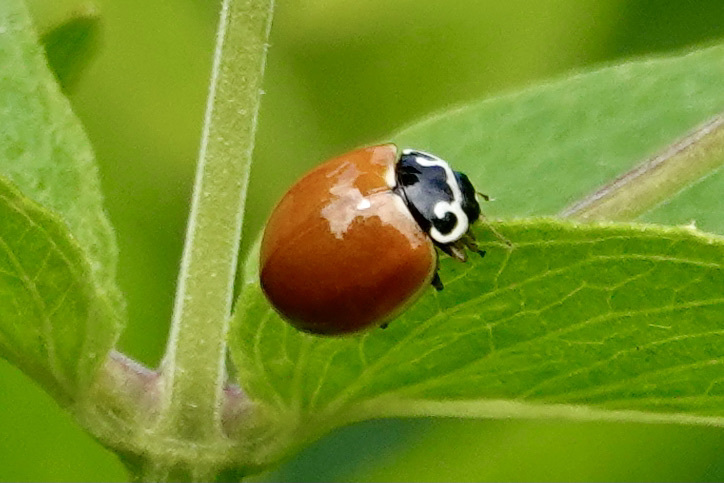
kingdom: Animalia
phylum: Arthropoda
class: Insecta
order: Coleoptera
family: Coccinellidae
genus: Cycloneda
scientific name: Cycloneda munda
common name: Polished lady beetle
